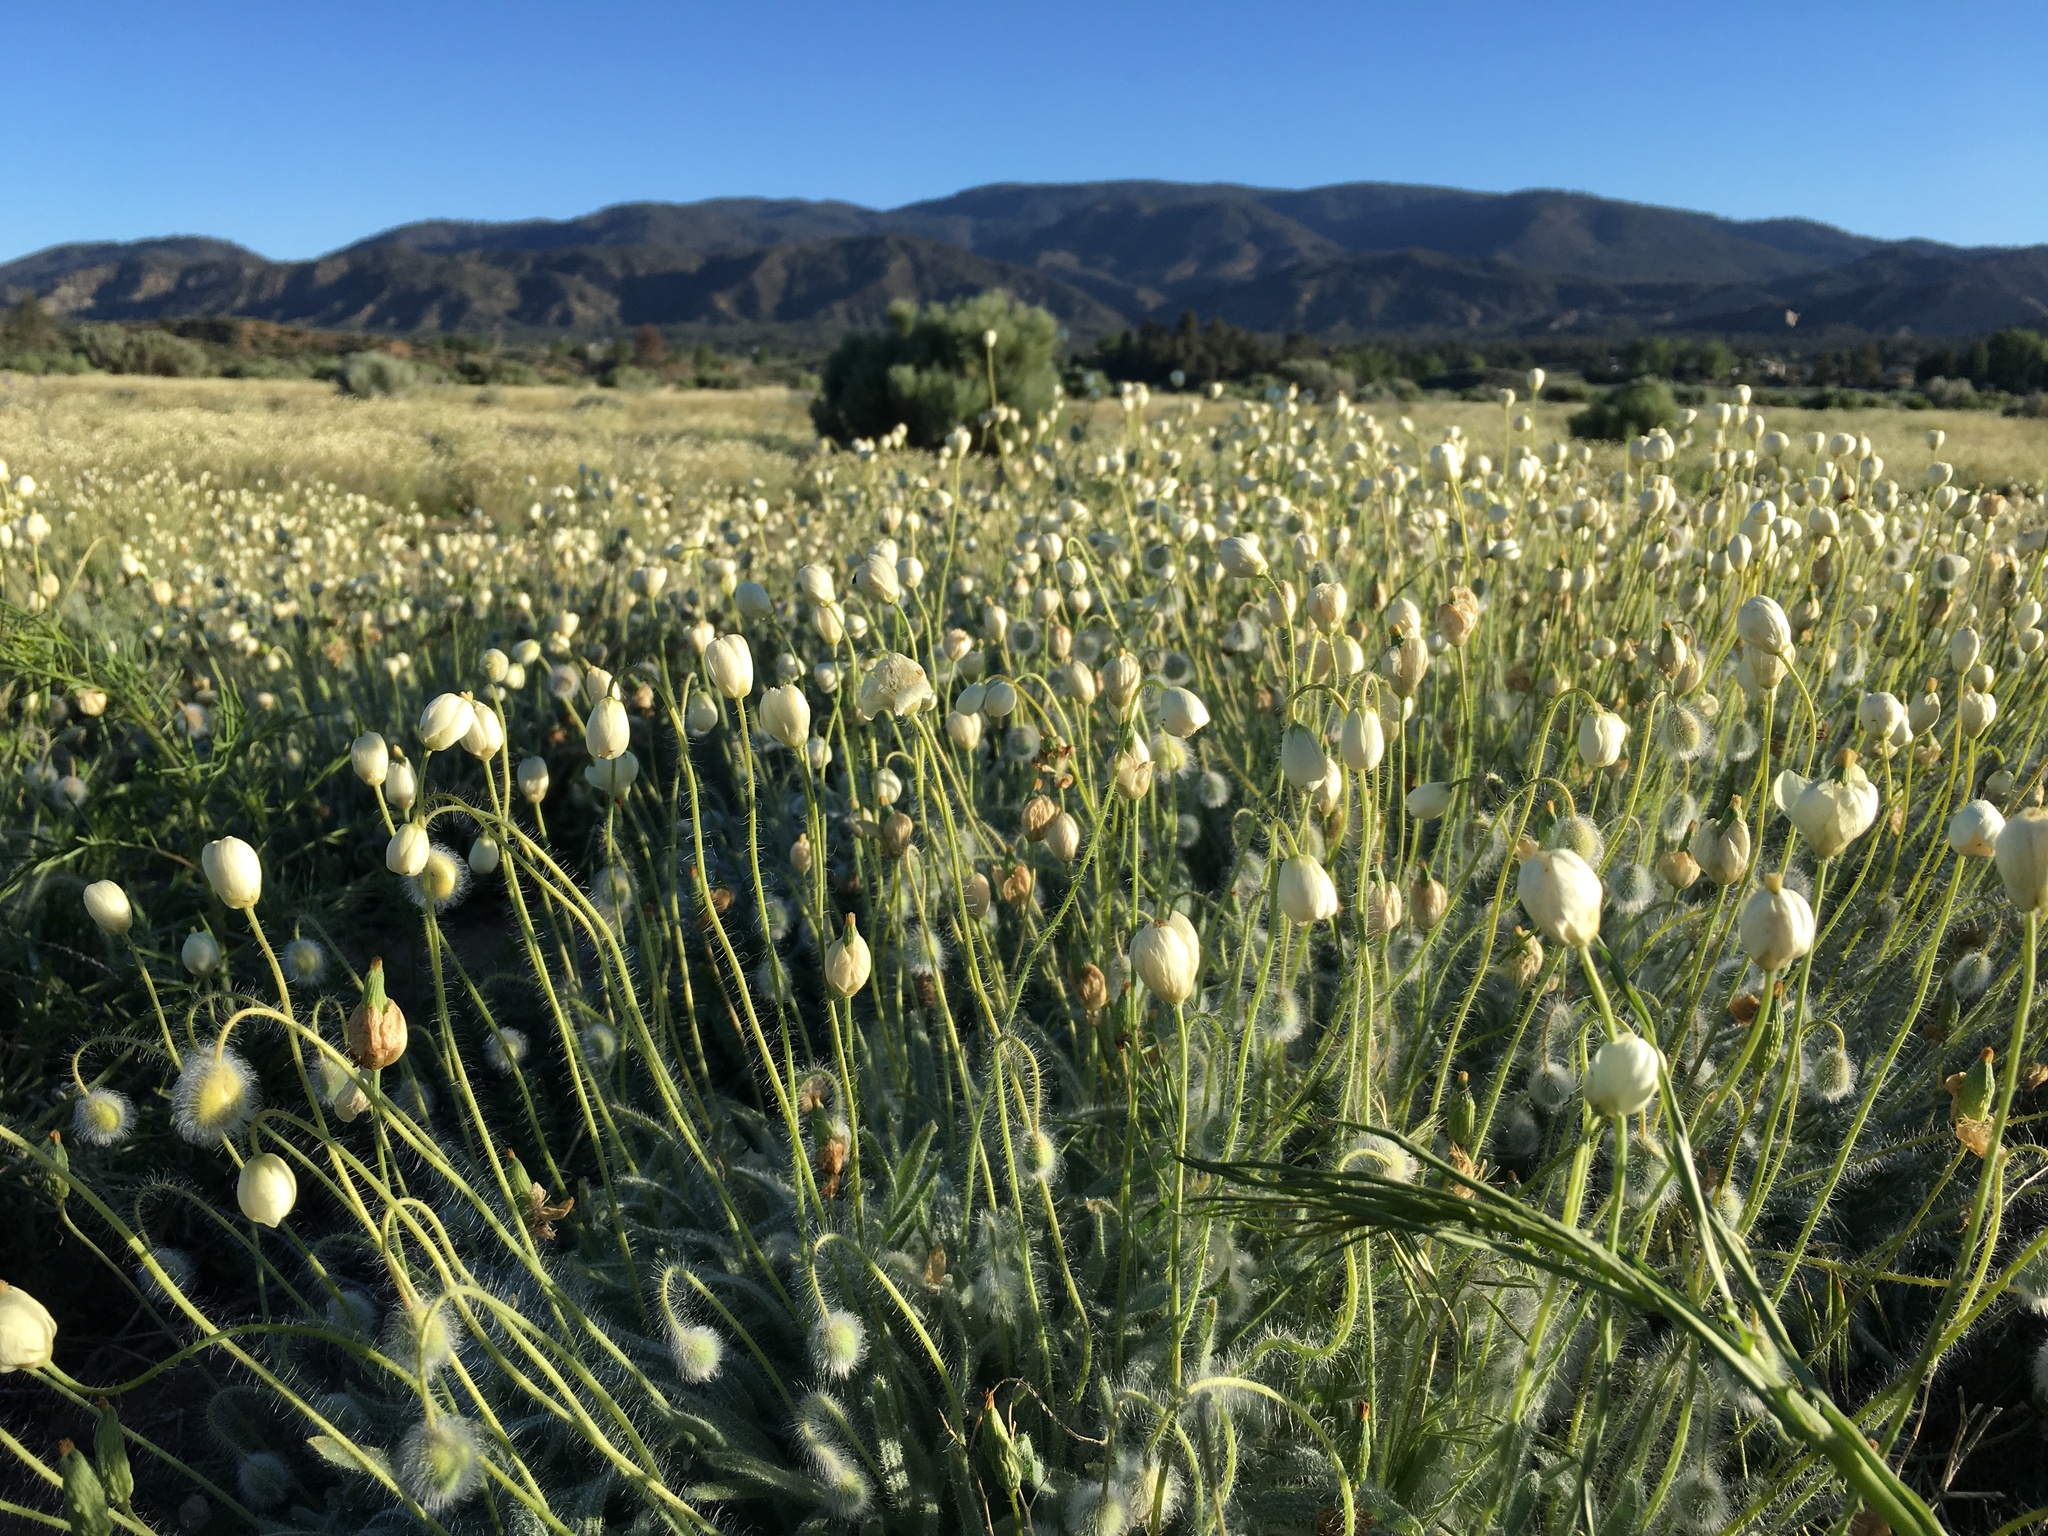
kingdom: Plantae
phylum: Tracheophyta
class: Magnoliopsida
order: Ranunculales
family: Papaveraceae
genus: Platystemon
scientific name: Platystemon californicus
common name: Cream-cups
